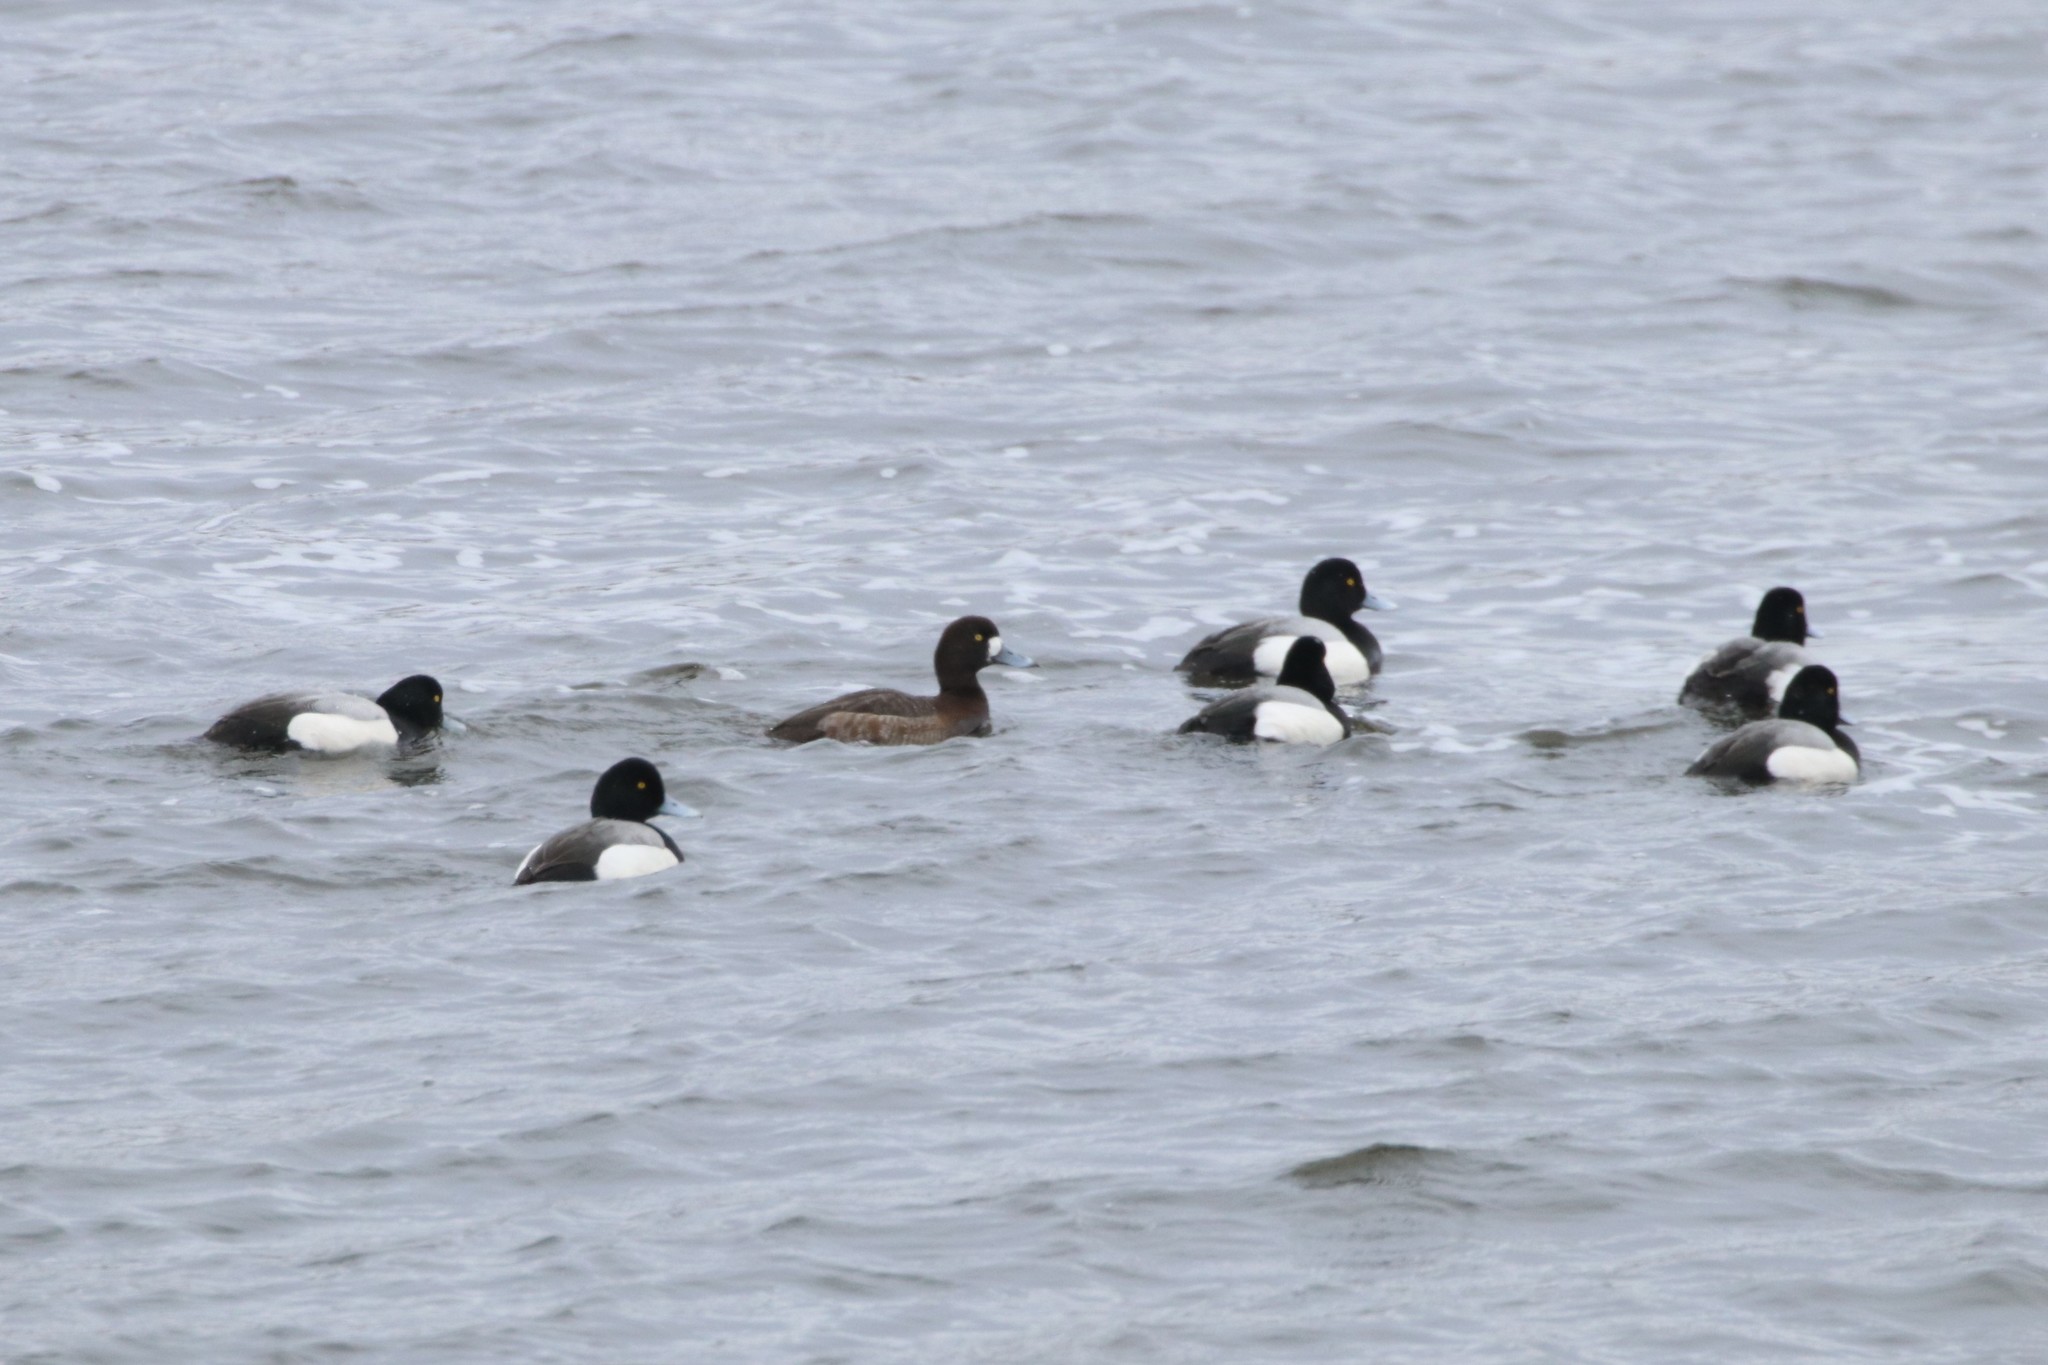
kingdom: Animalia
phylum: Chordata
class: Aves
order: Anseriformes
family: Anatidae
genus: Aythya
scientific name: Aythya marila
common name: Greater scaup
